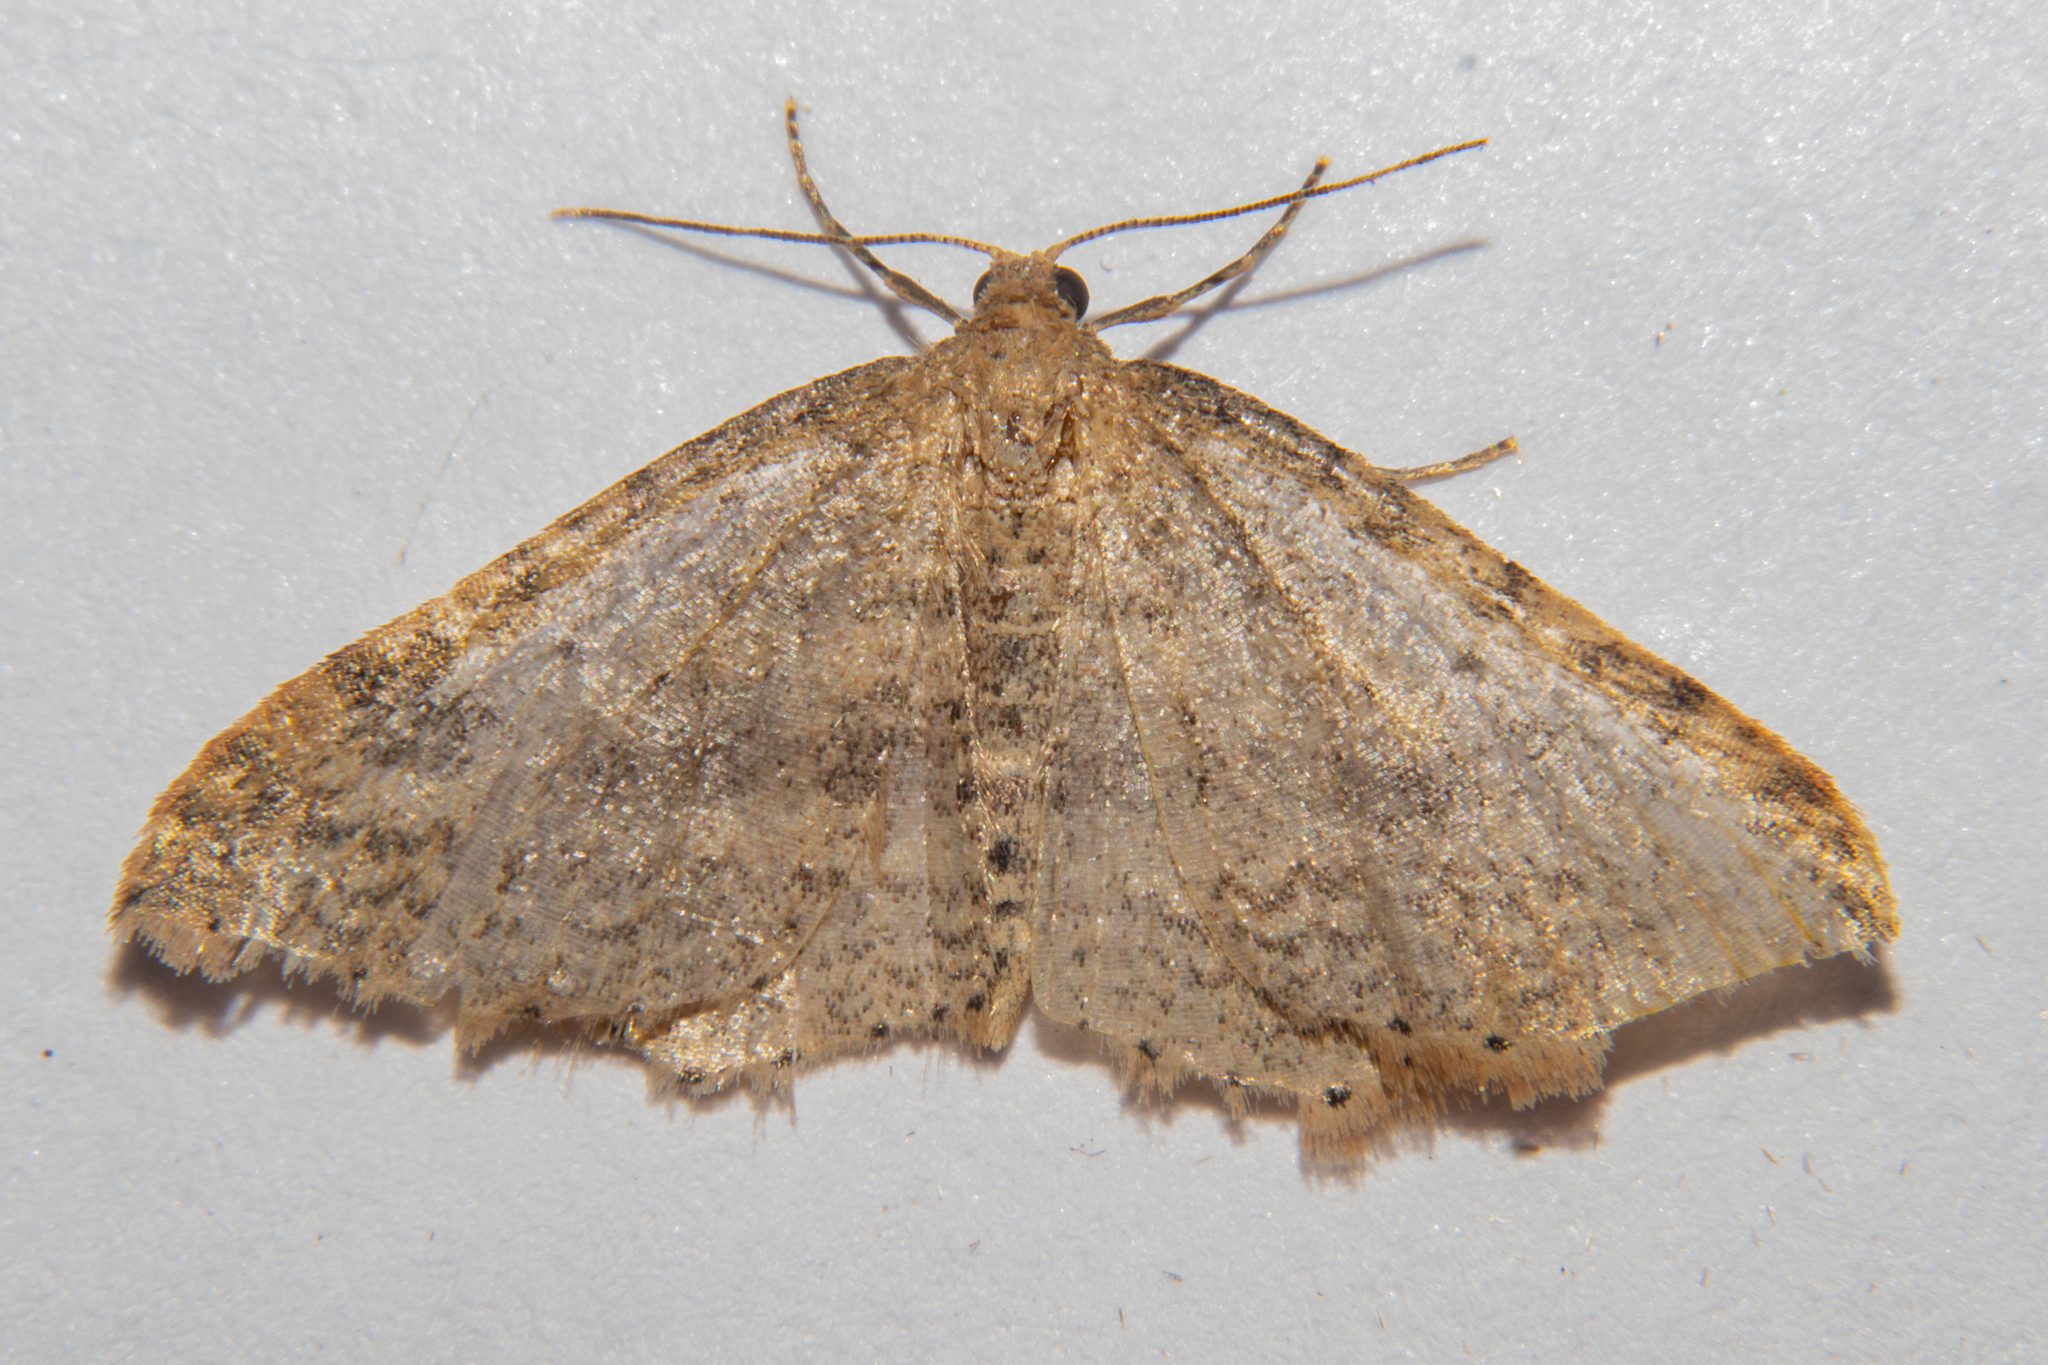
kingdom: Animalia
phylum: Arthropoda
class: Insecta
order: Lepidoptera
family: Geometridae
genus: Epicyme
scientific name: Epicyme rubropunctaria
